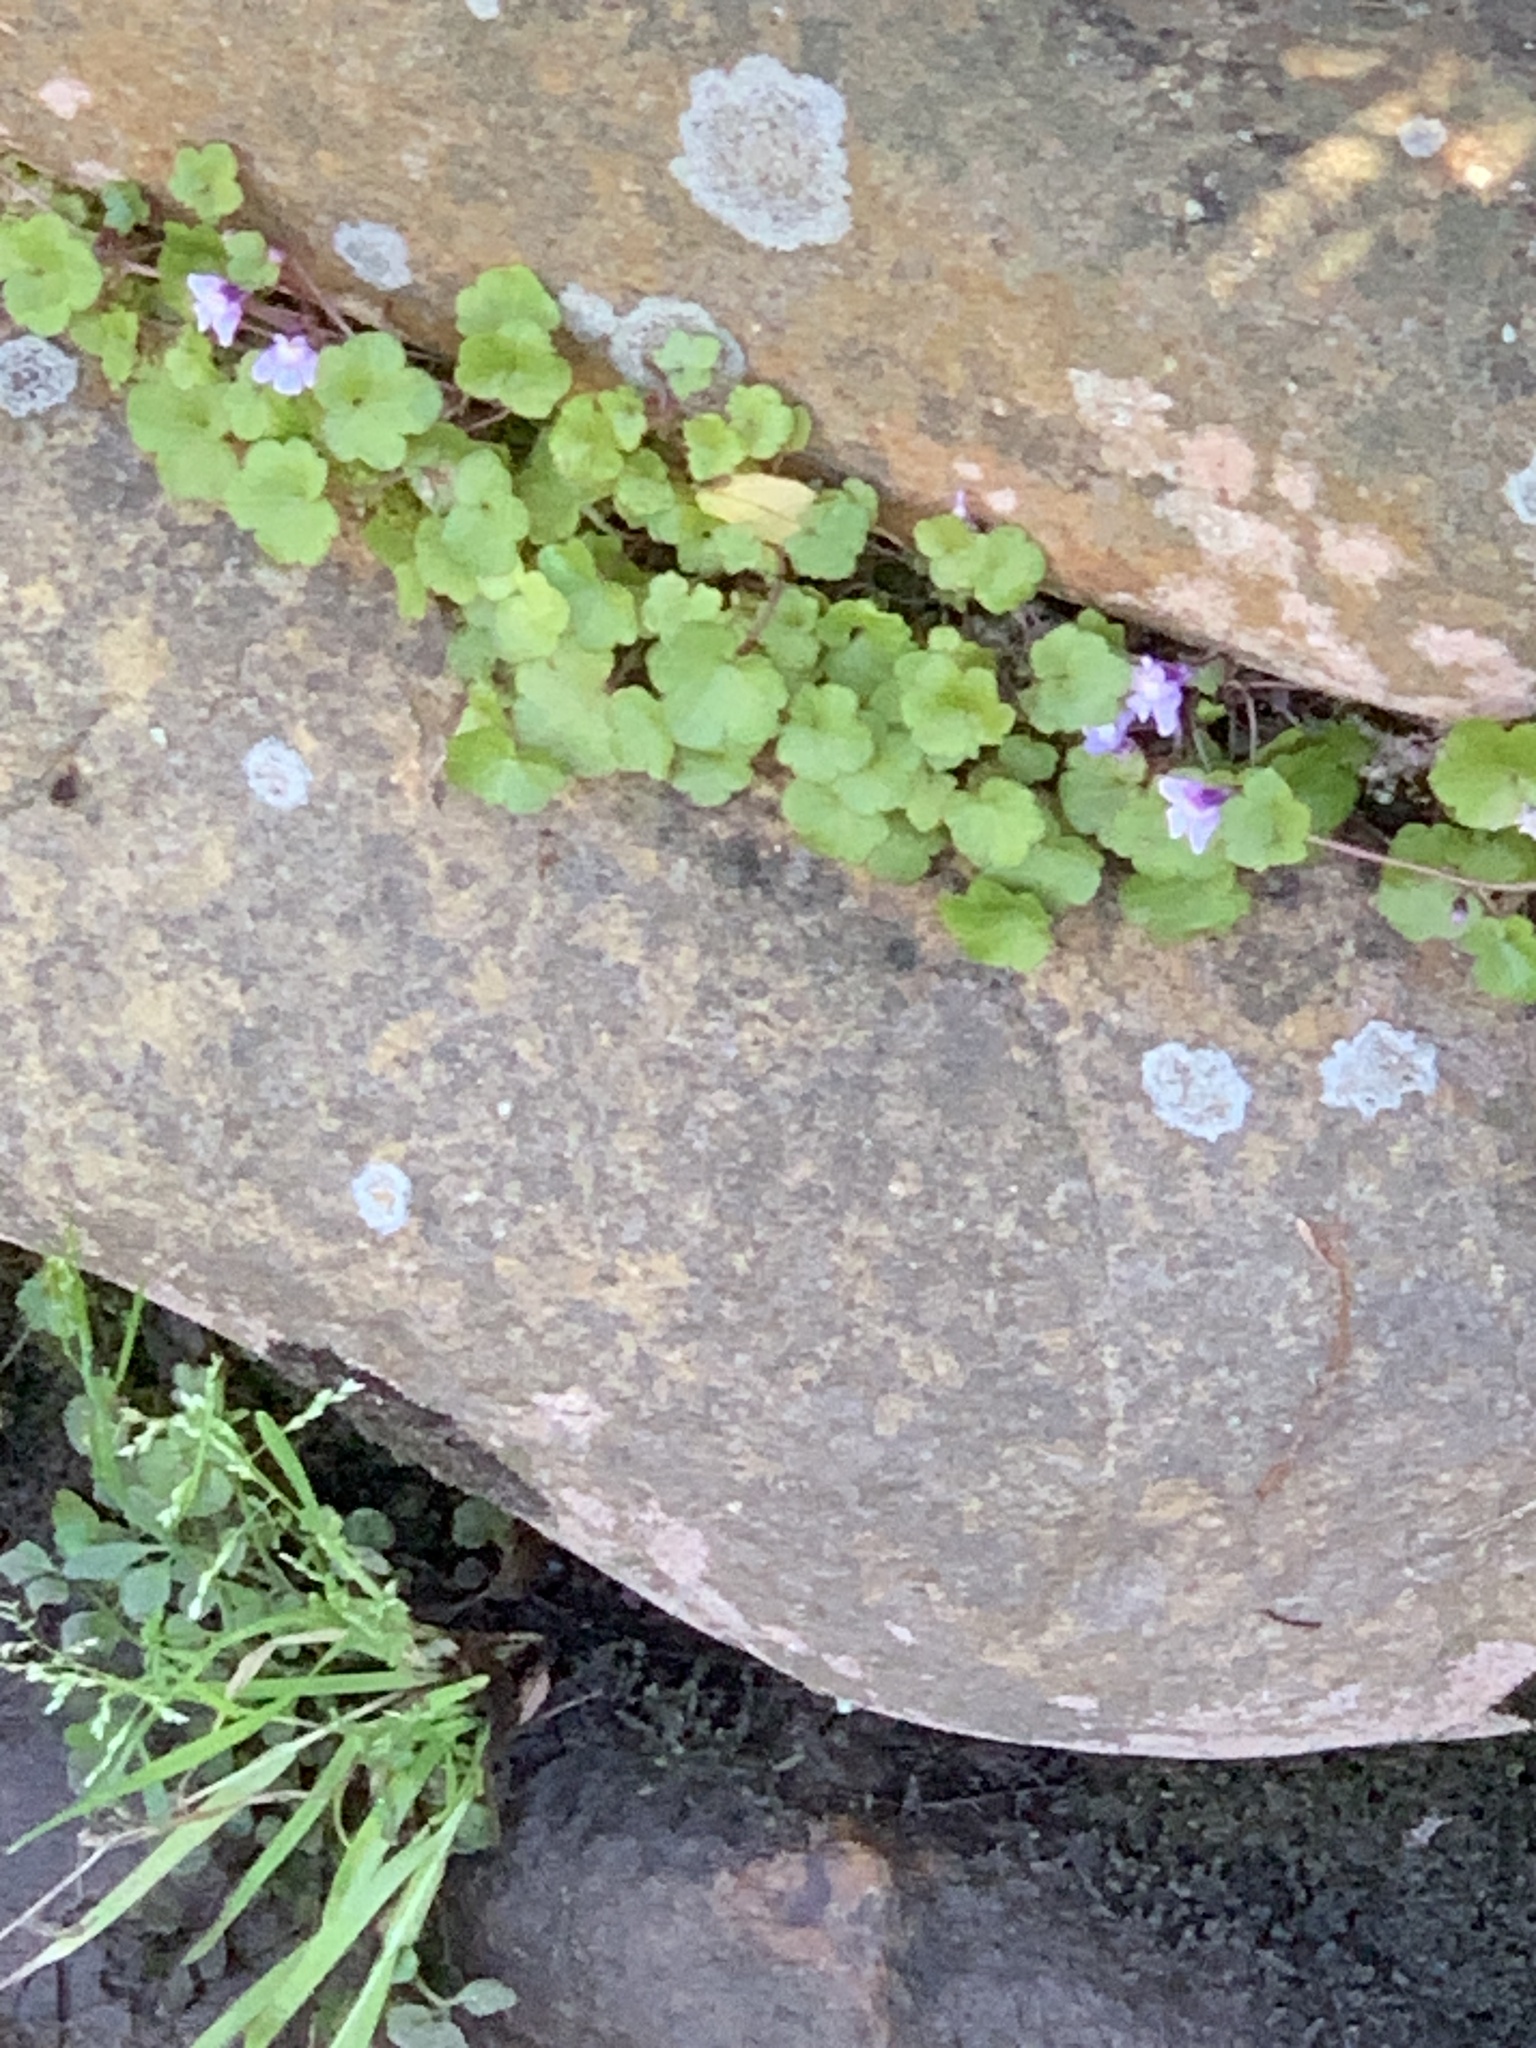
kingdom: Plantae
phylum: Tracheophyta
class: Magnoliopsida
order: Lamiales
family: Plantaginaceae
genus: Cymbalaria
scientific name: Cymbalaria muralis
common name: Ivy-leaved toadflax
